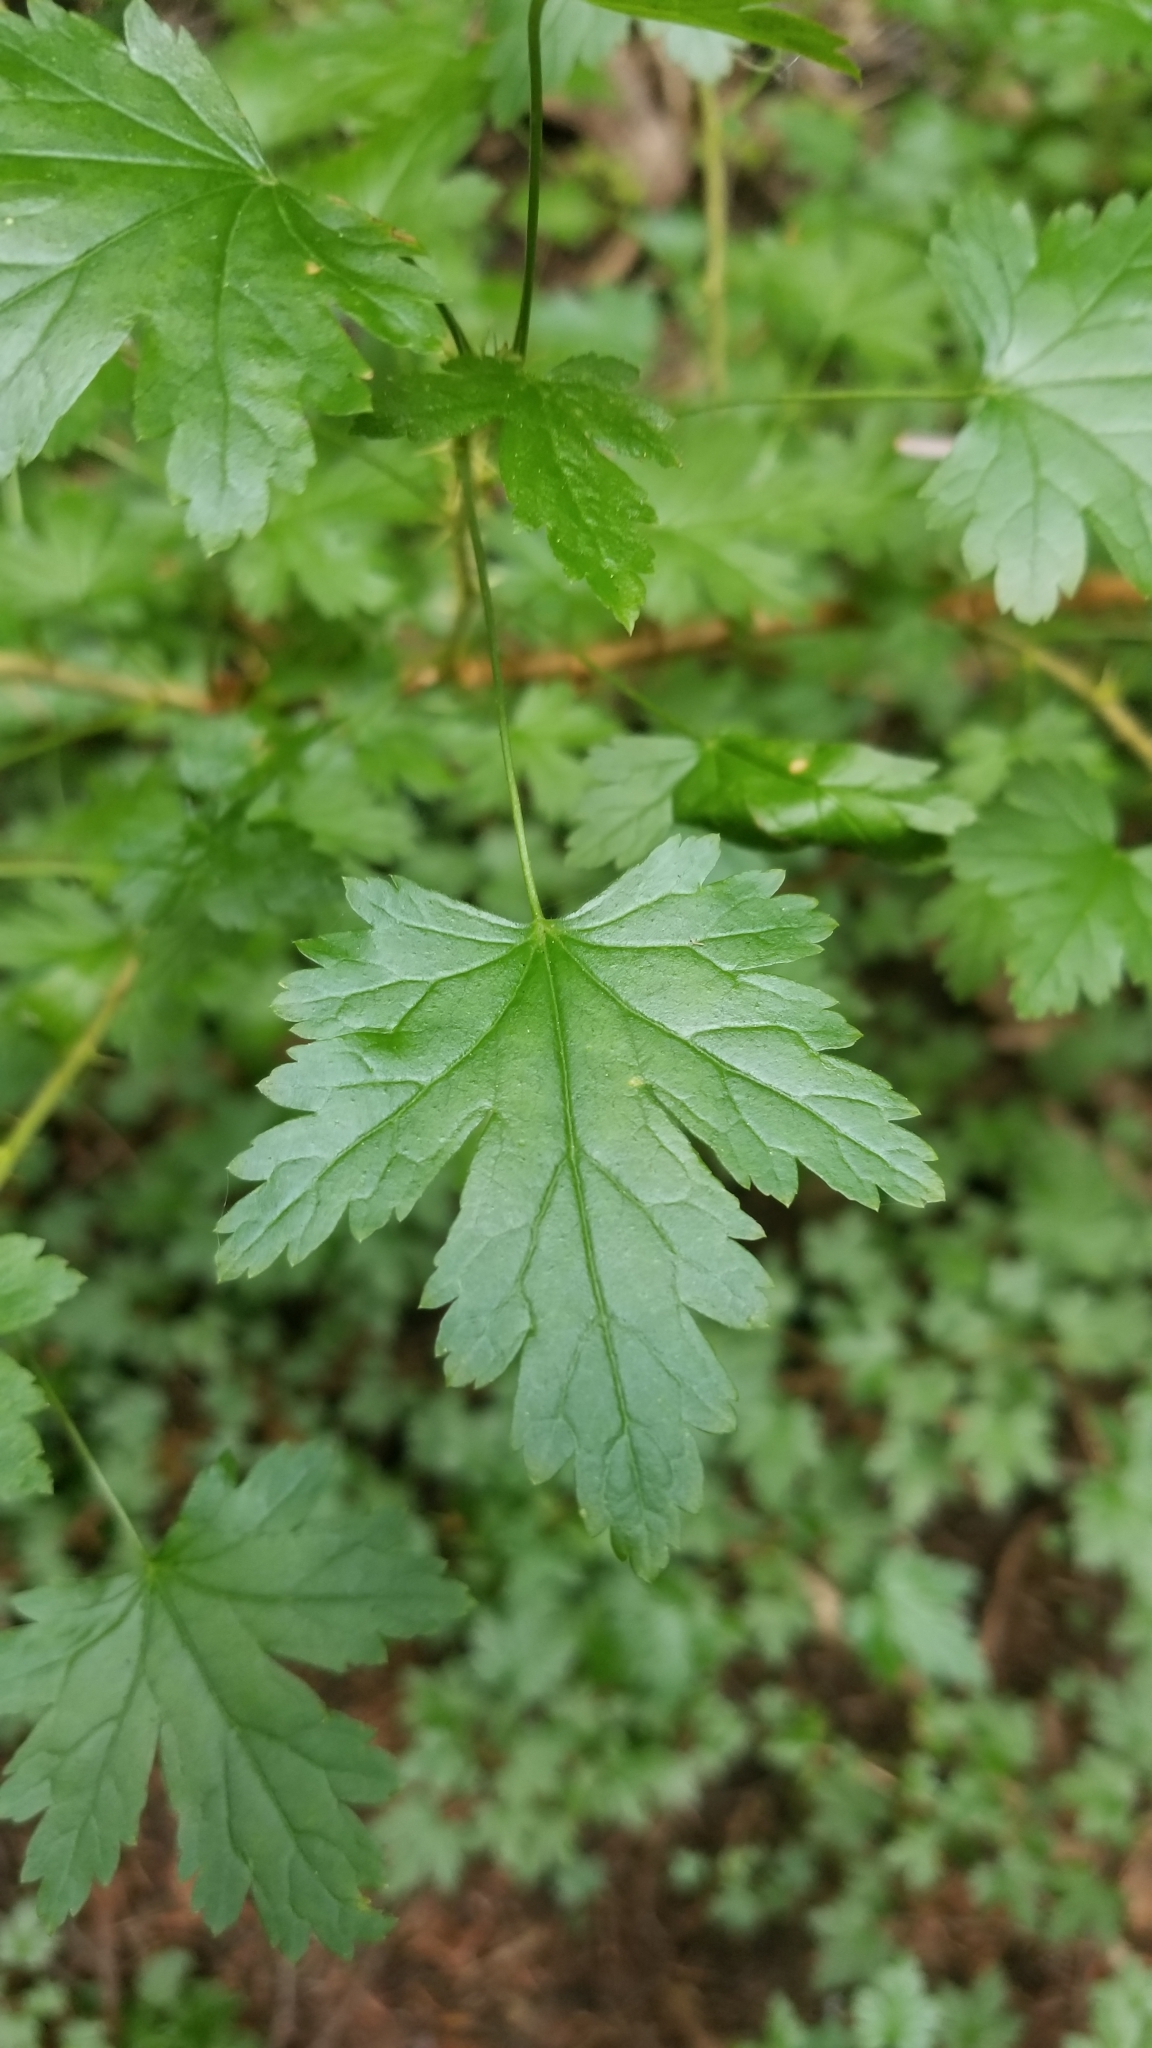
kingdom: Plantae
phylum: Tracheophyta
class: Magnoliopsida
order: Saxifragales
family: Grossulariaceae
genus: Ribes
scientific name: Ribes lacustre
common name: Black gooseberry
